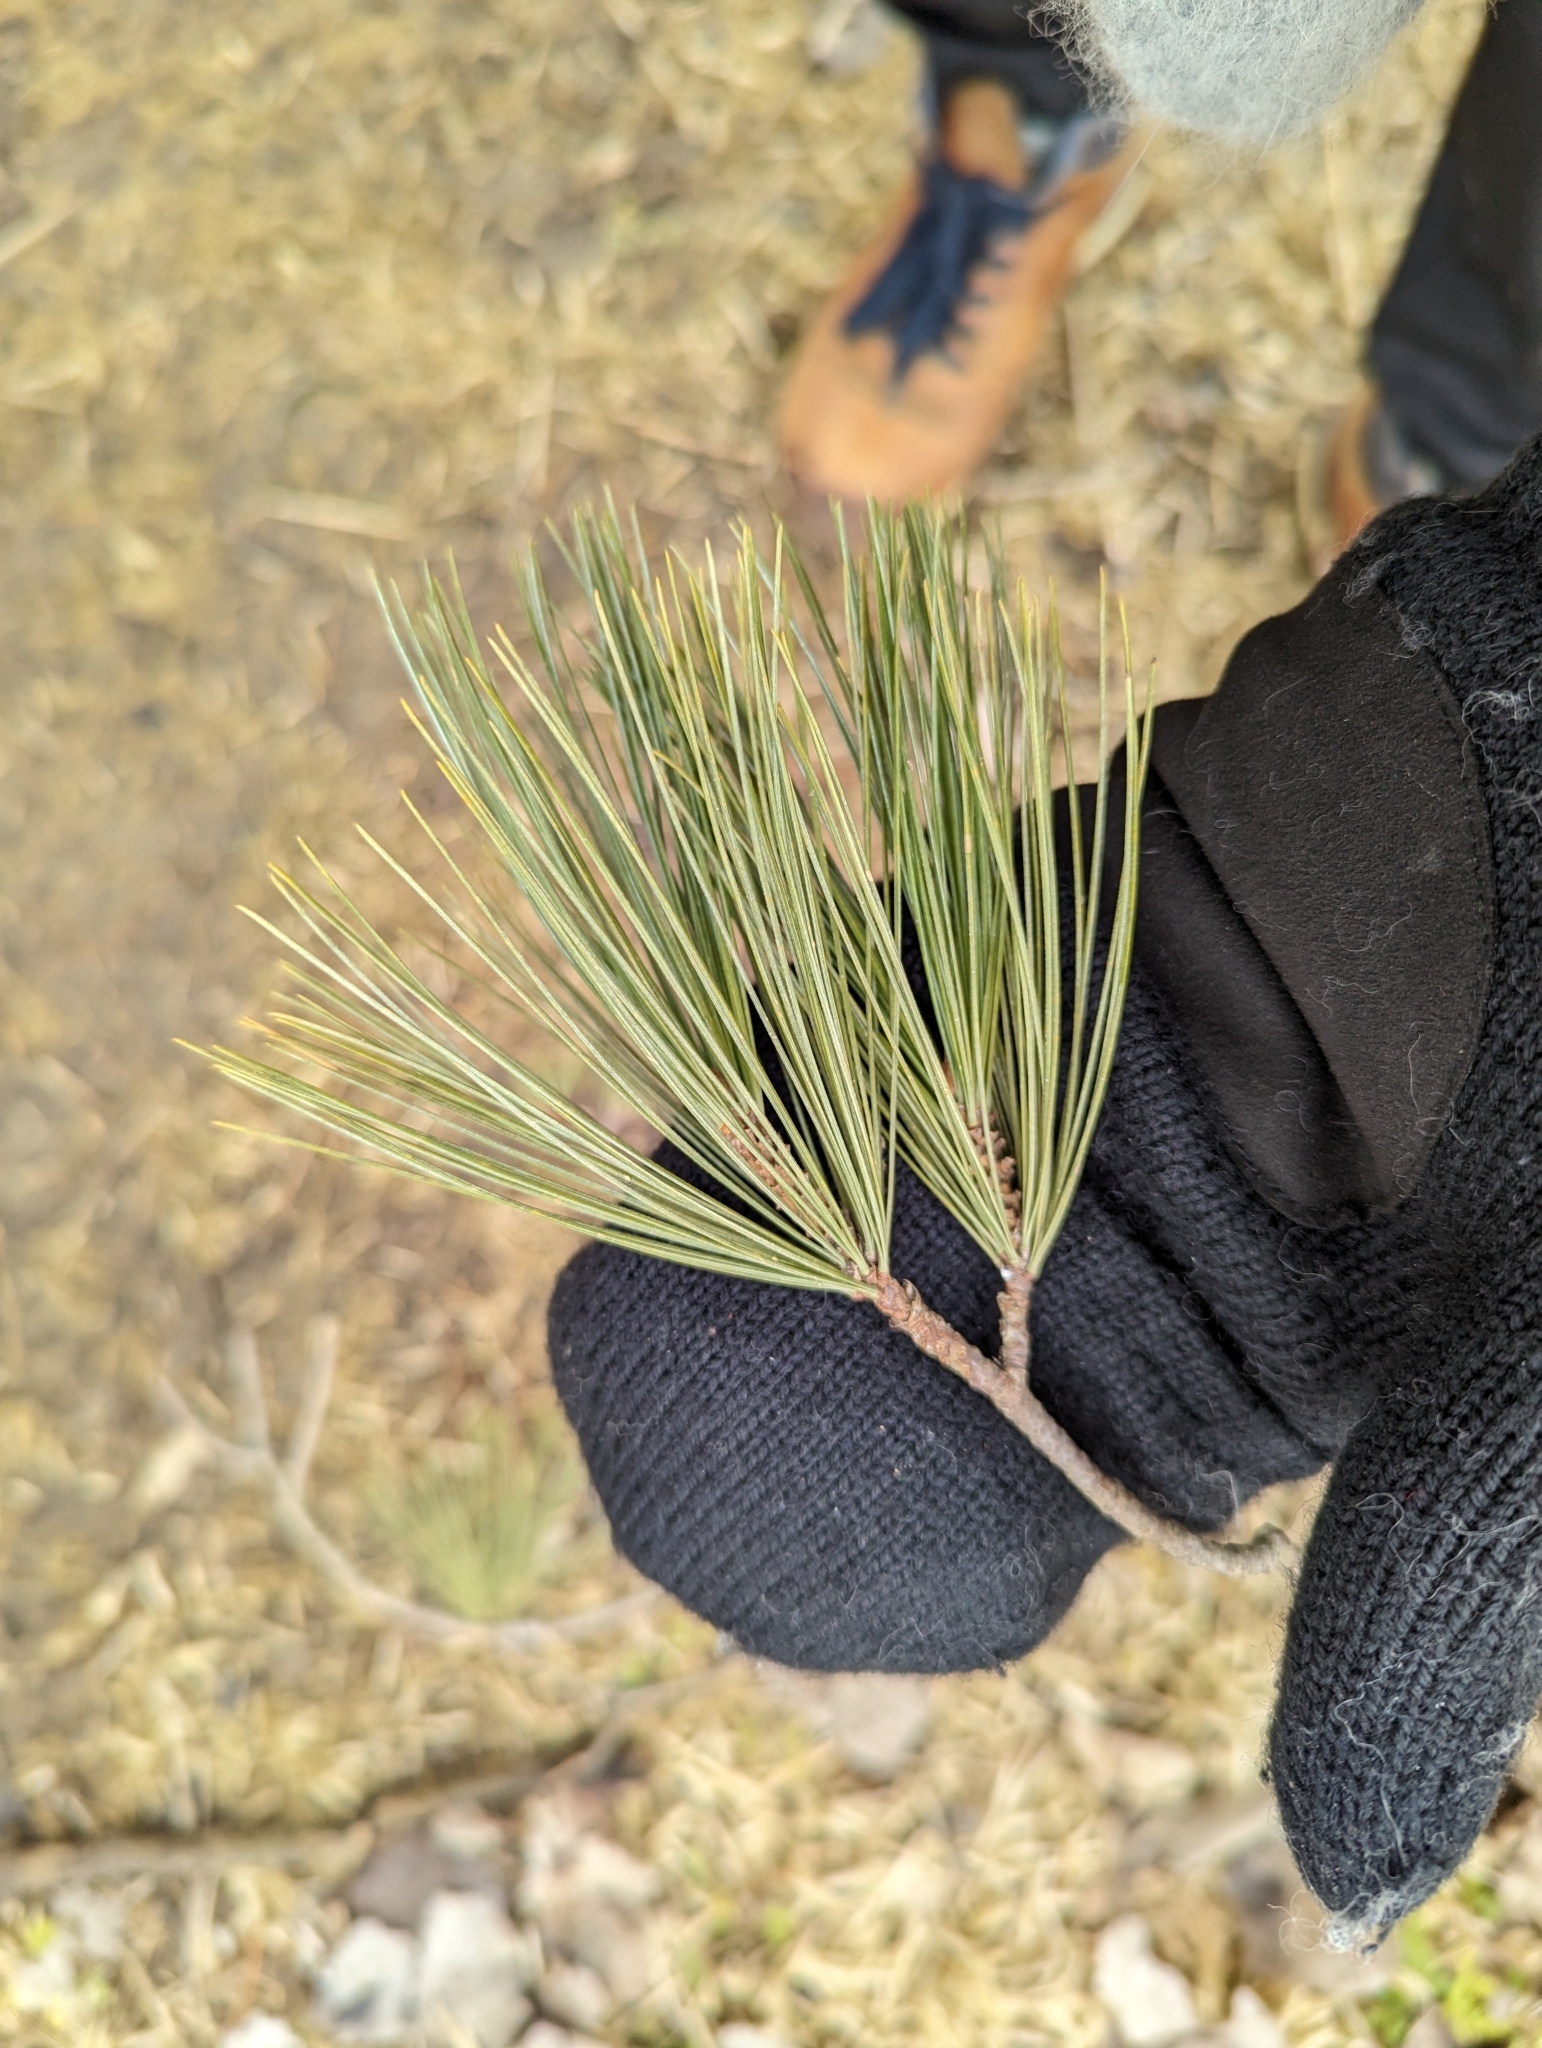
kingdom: Plantae
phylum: Tracheophyta
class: Pinopsida
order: Pinales
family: Pinaceae
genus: Pinus
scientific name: Pinus strobus
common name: Weymouth pine
